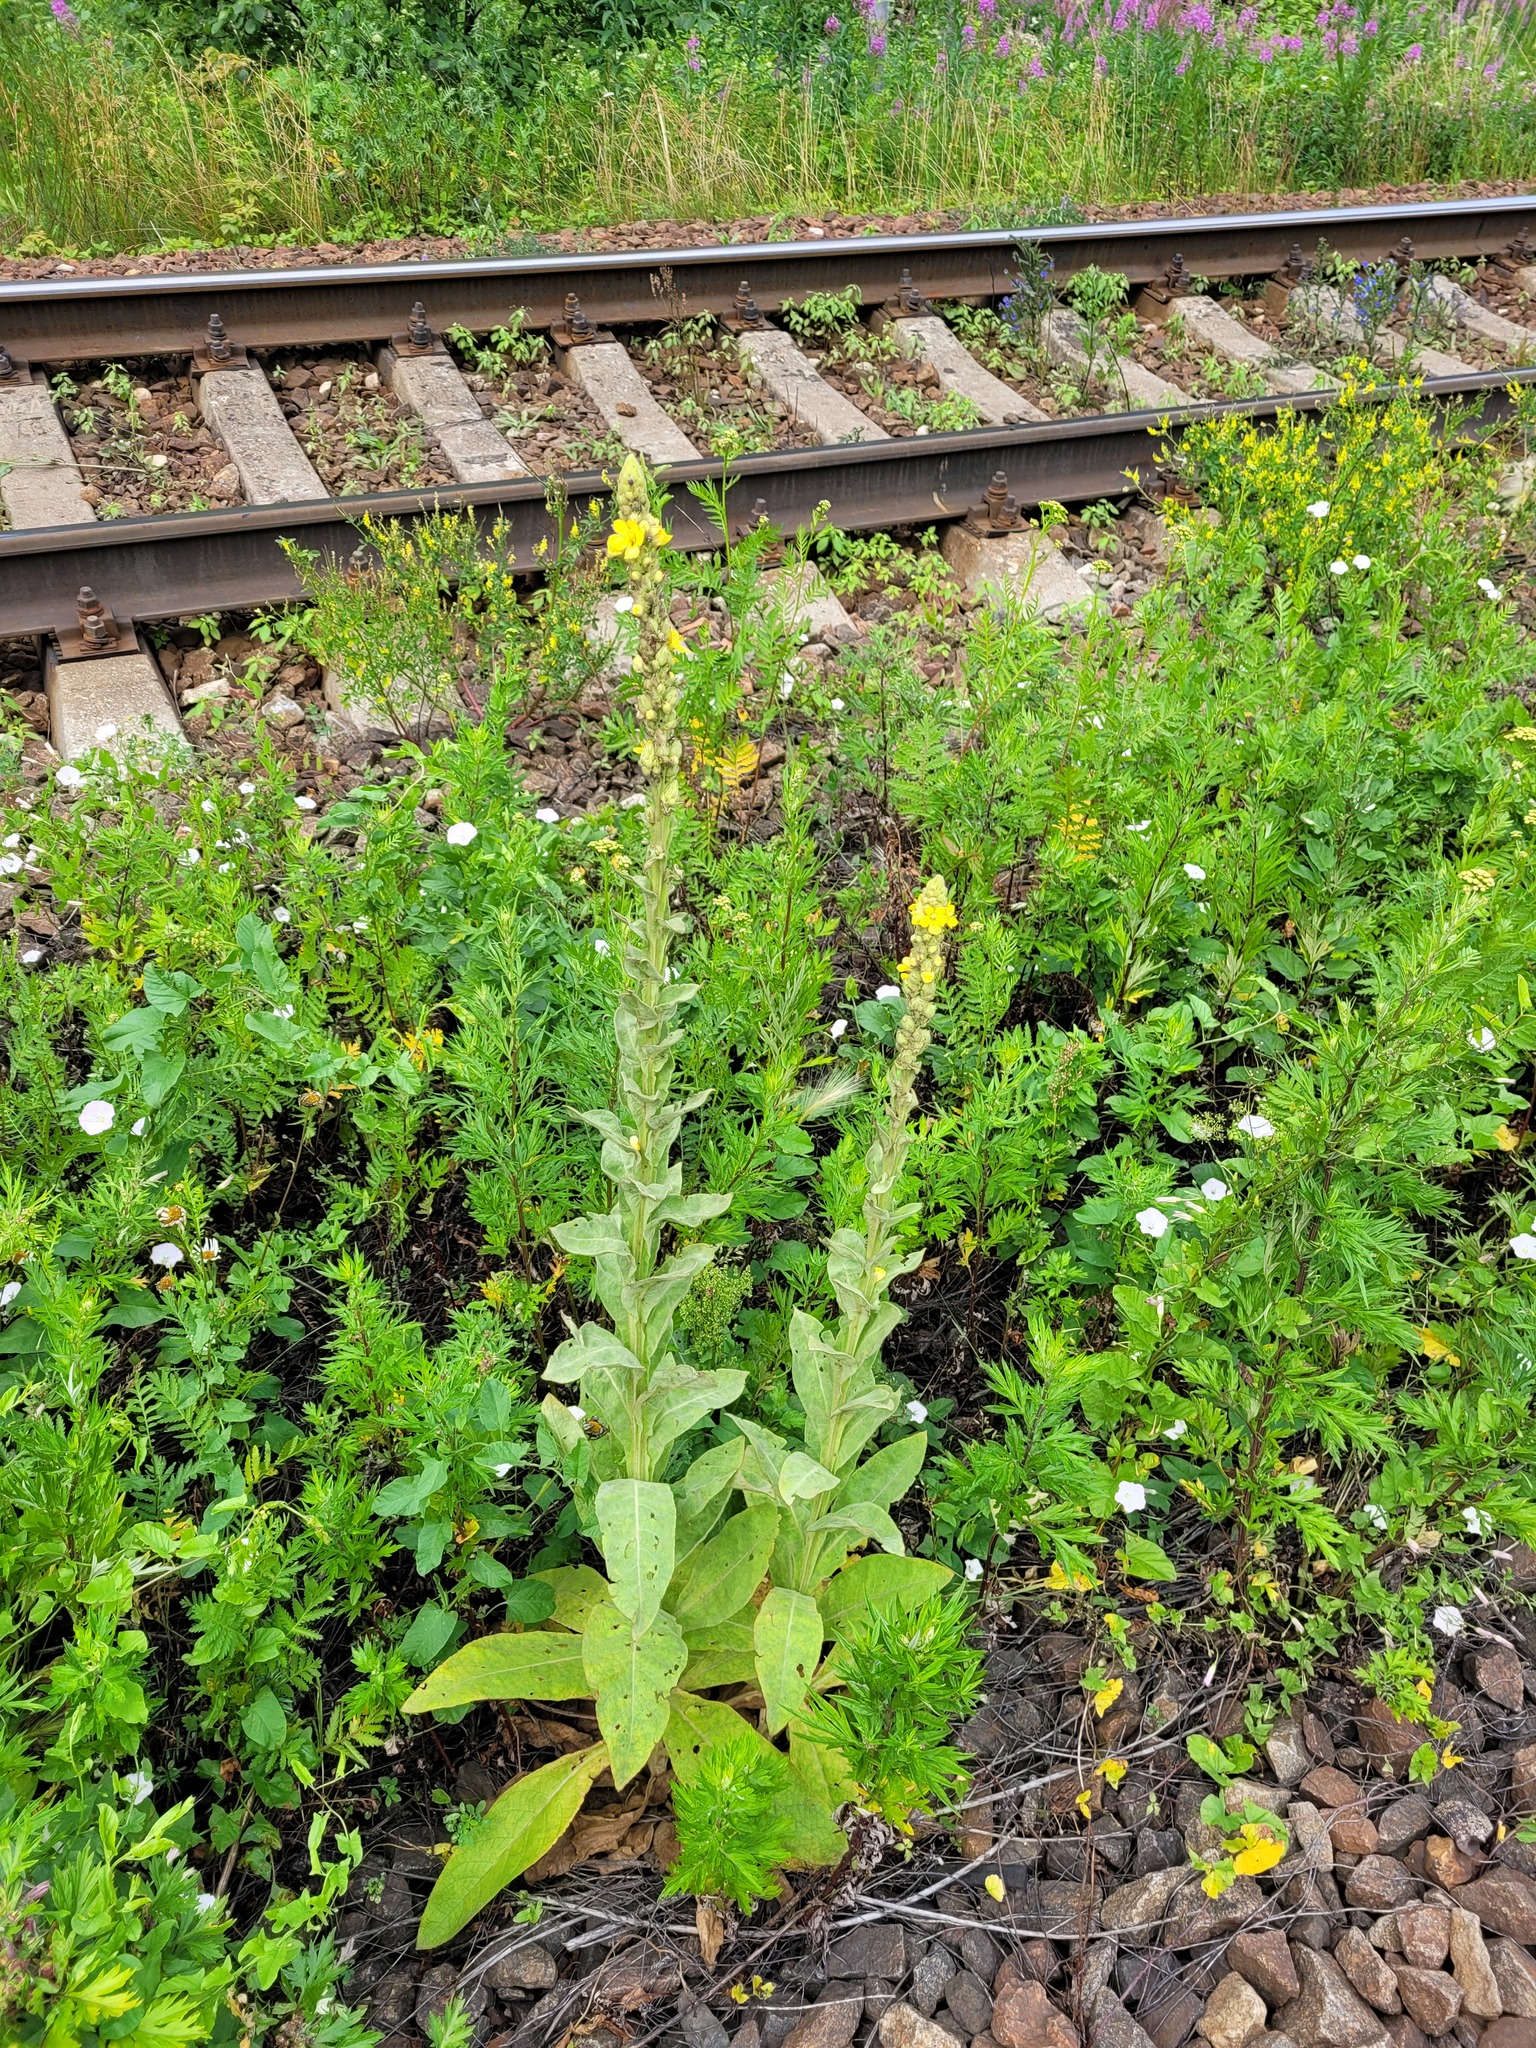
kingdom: Plantae
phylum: Tracheophyta
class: Magnoliopsida
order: Lamiales
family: Scrophulariaceae
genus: Verbascum
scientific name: Verbascum thapsus
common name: Common mullein
